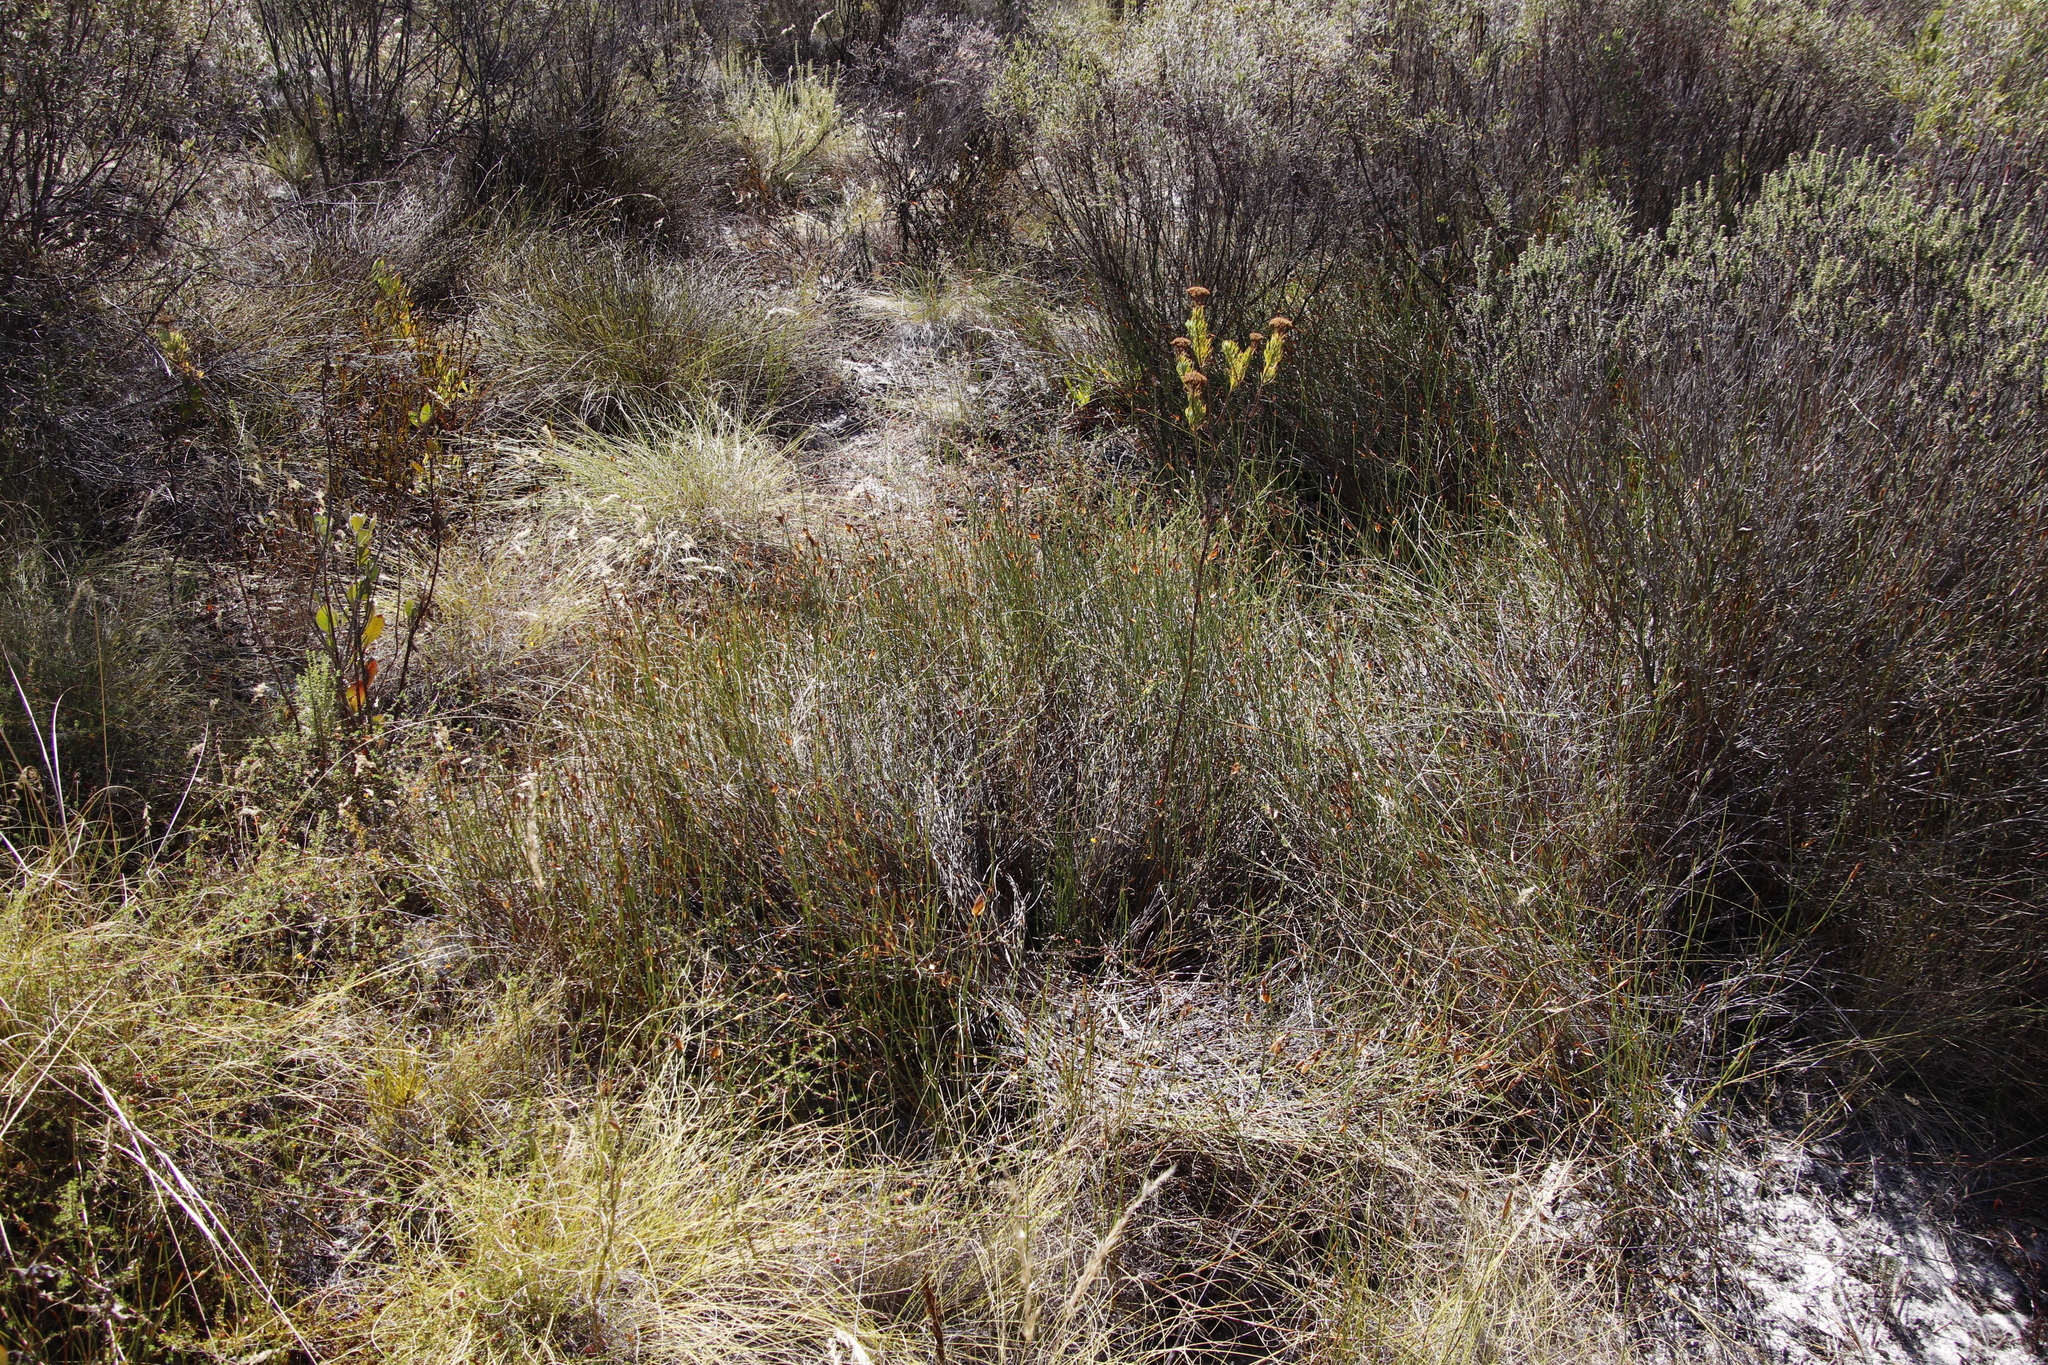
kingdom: Plantae
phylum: Tracheophyta
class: Liliopsida
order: Poales
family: Restionaceae
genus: Willdenowia
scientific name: Willdenowia sulcata
